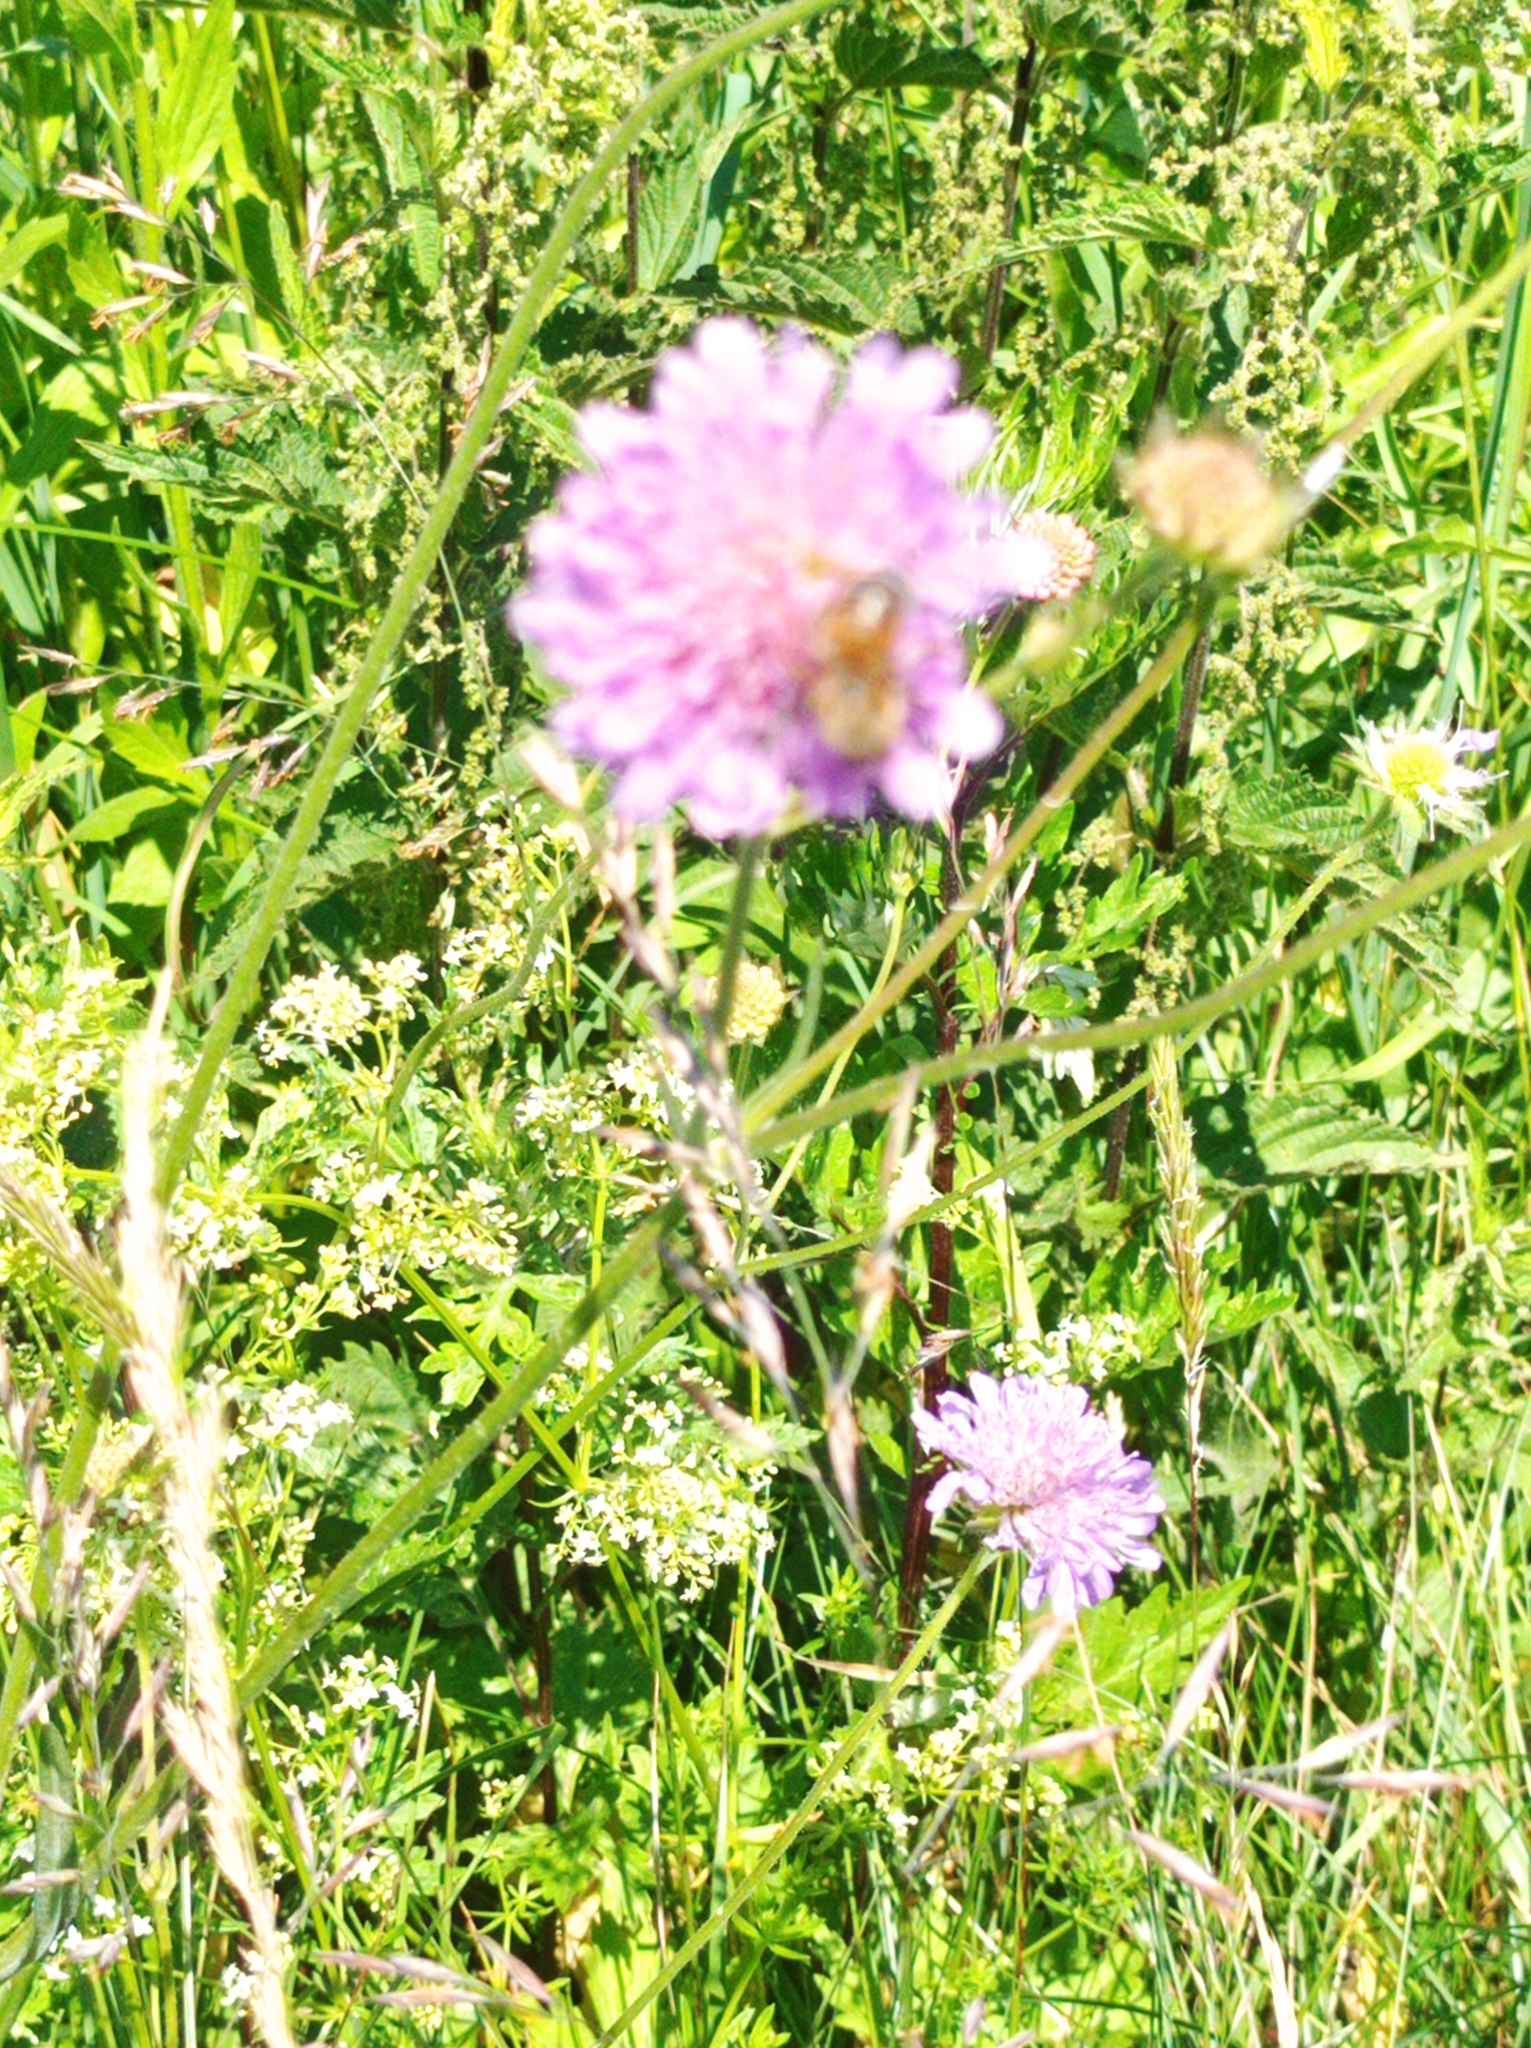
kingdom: Plantae
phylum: Tracheophyta
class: Magnoliopsida
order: Dipsacales
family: Caprifoliaceae
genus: Knautia
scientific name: Knautia arvensis
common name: Field scabiosa
